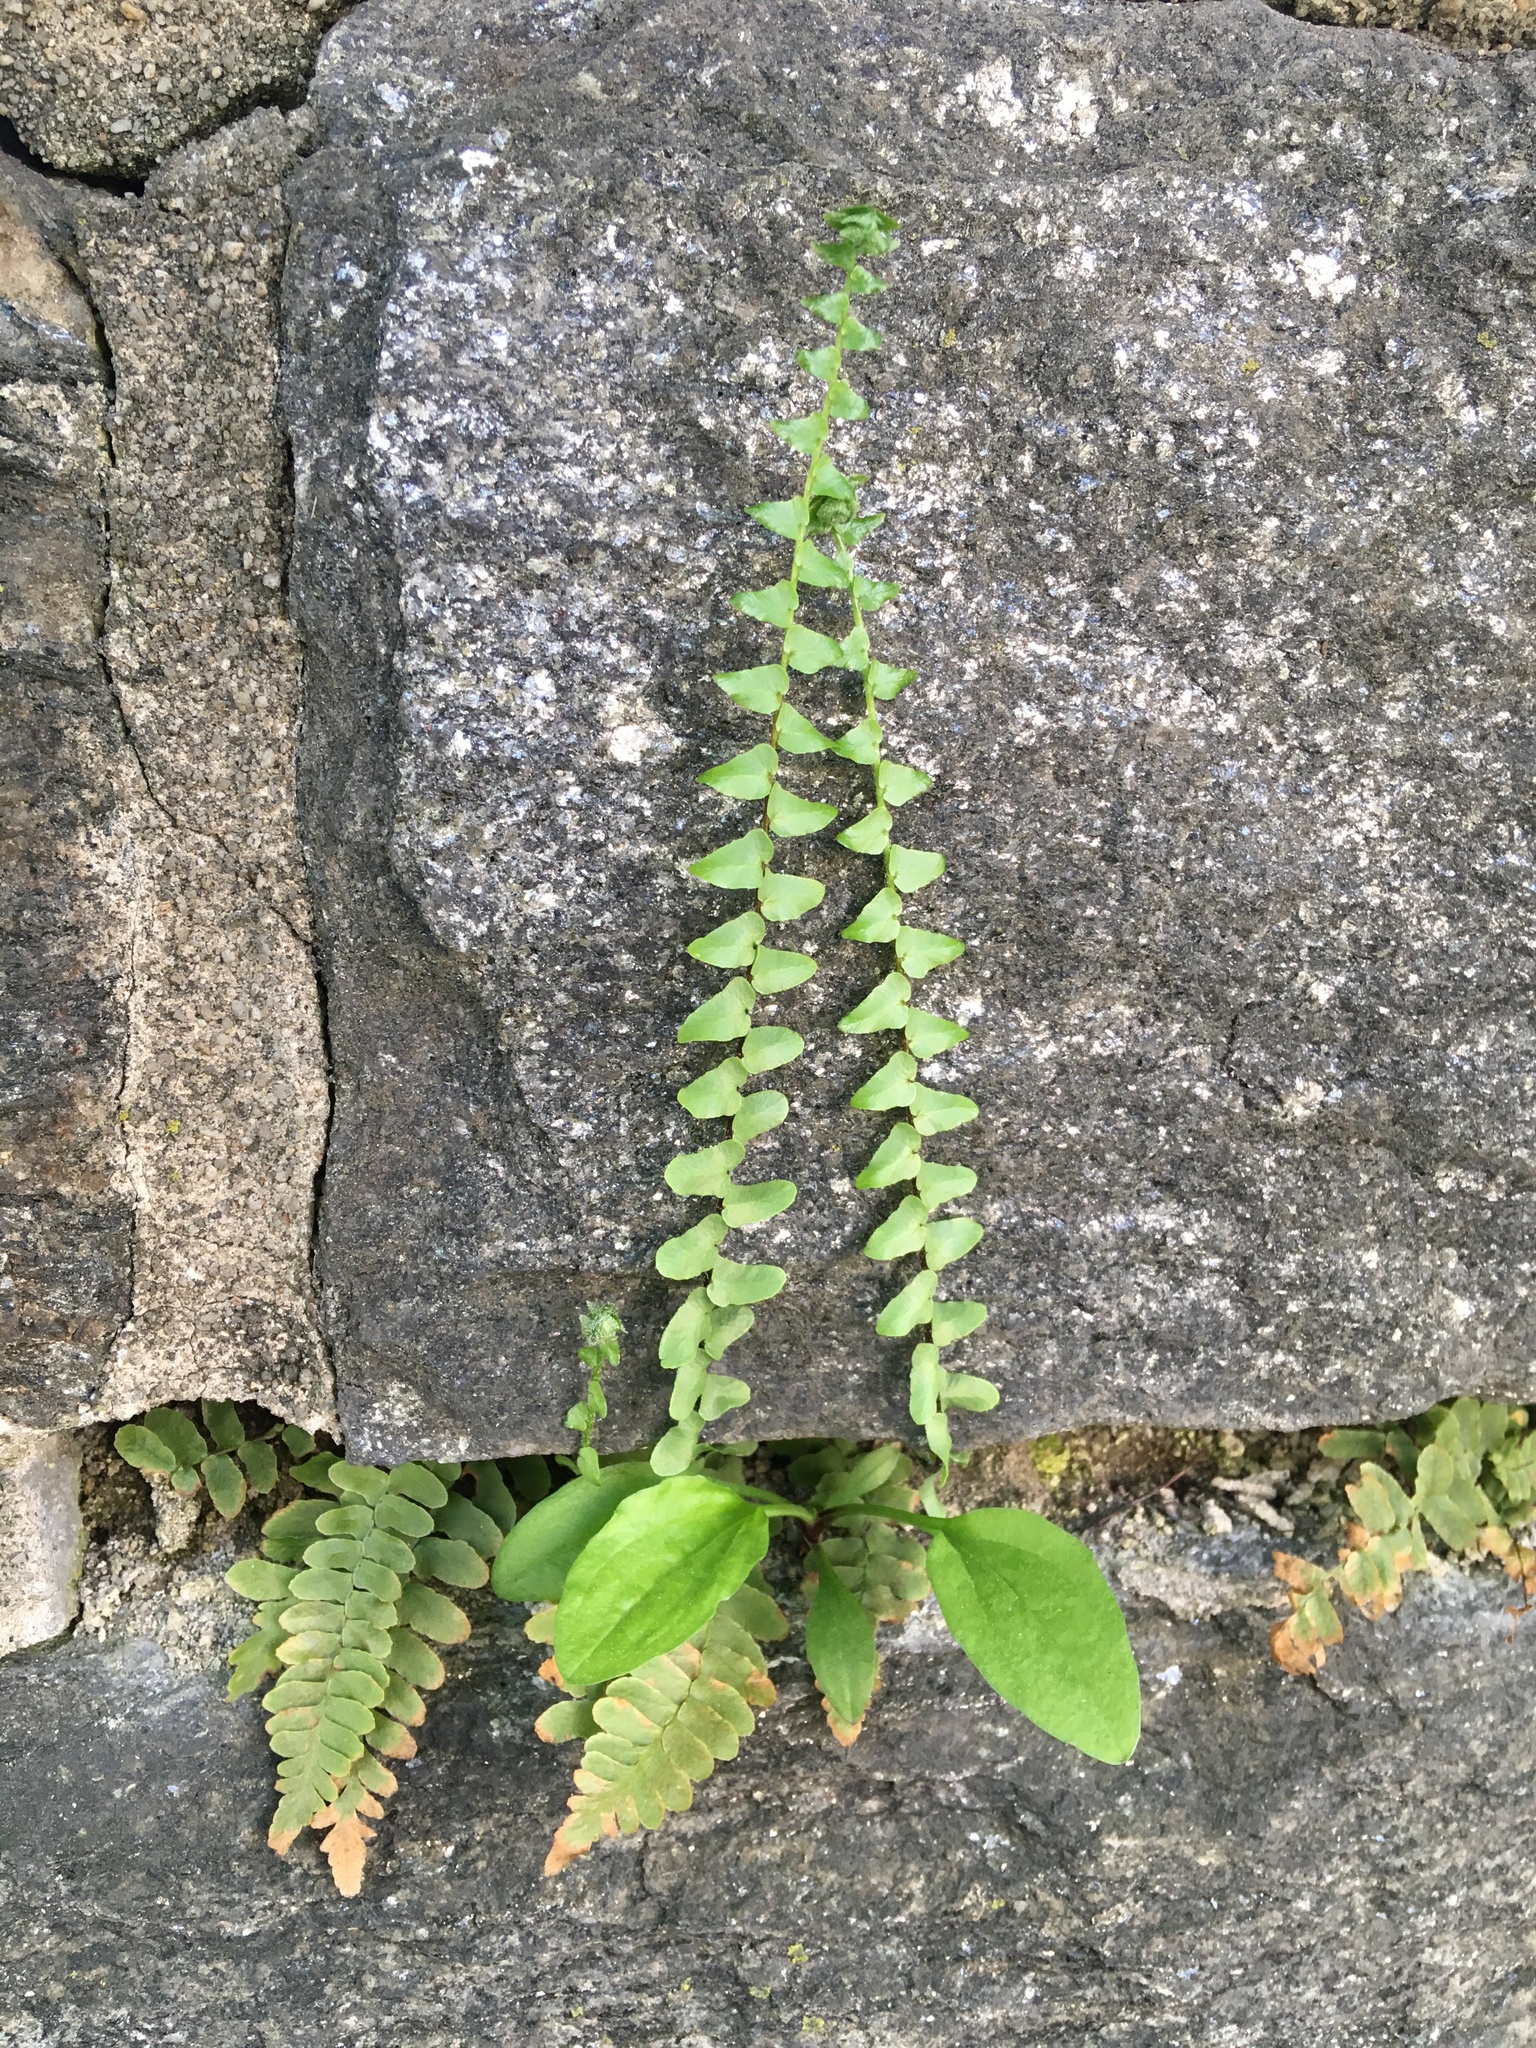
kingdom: Plantae
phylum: Tracheophyta
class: Polypodiopsida
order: Polypodiales
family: Aspleniaceae
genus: Asplenium
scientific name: Asplenium platyneuron
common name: Ebony spleenwort
